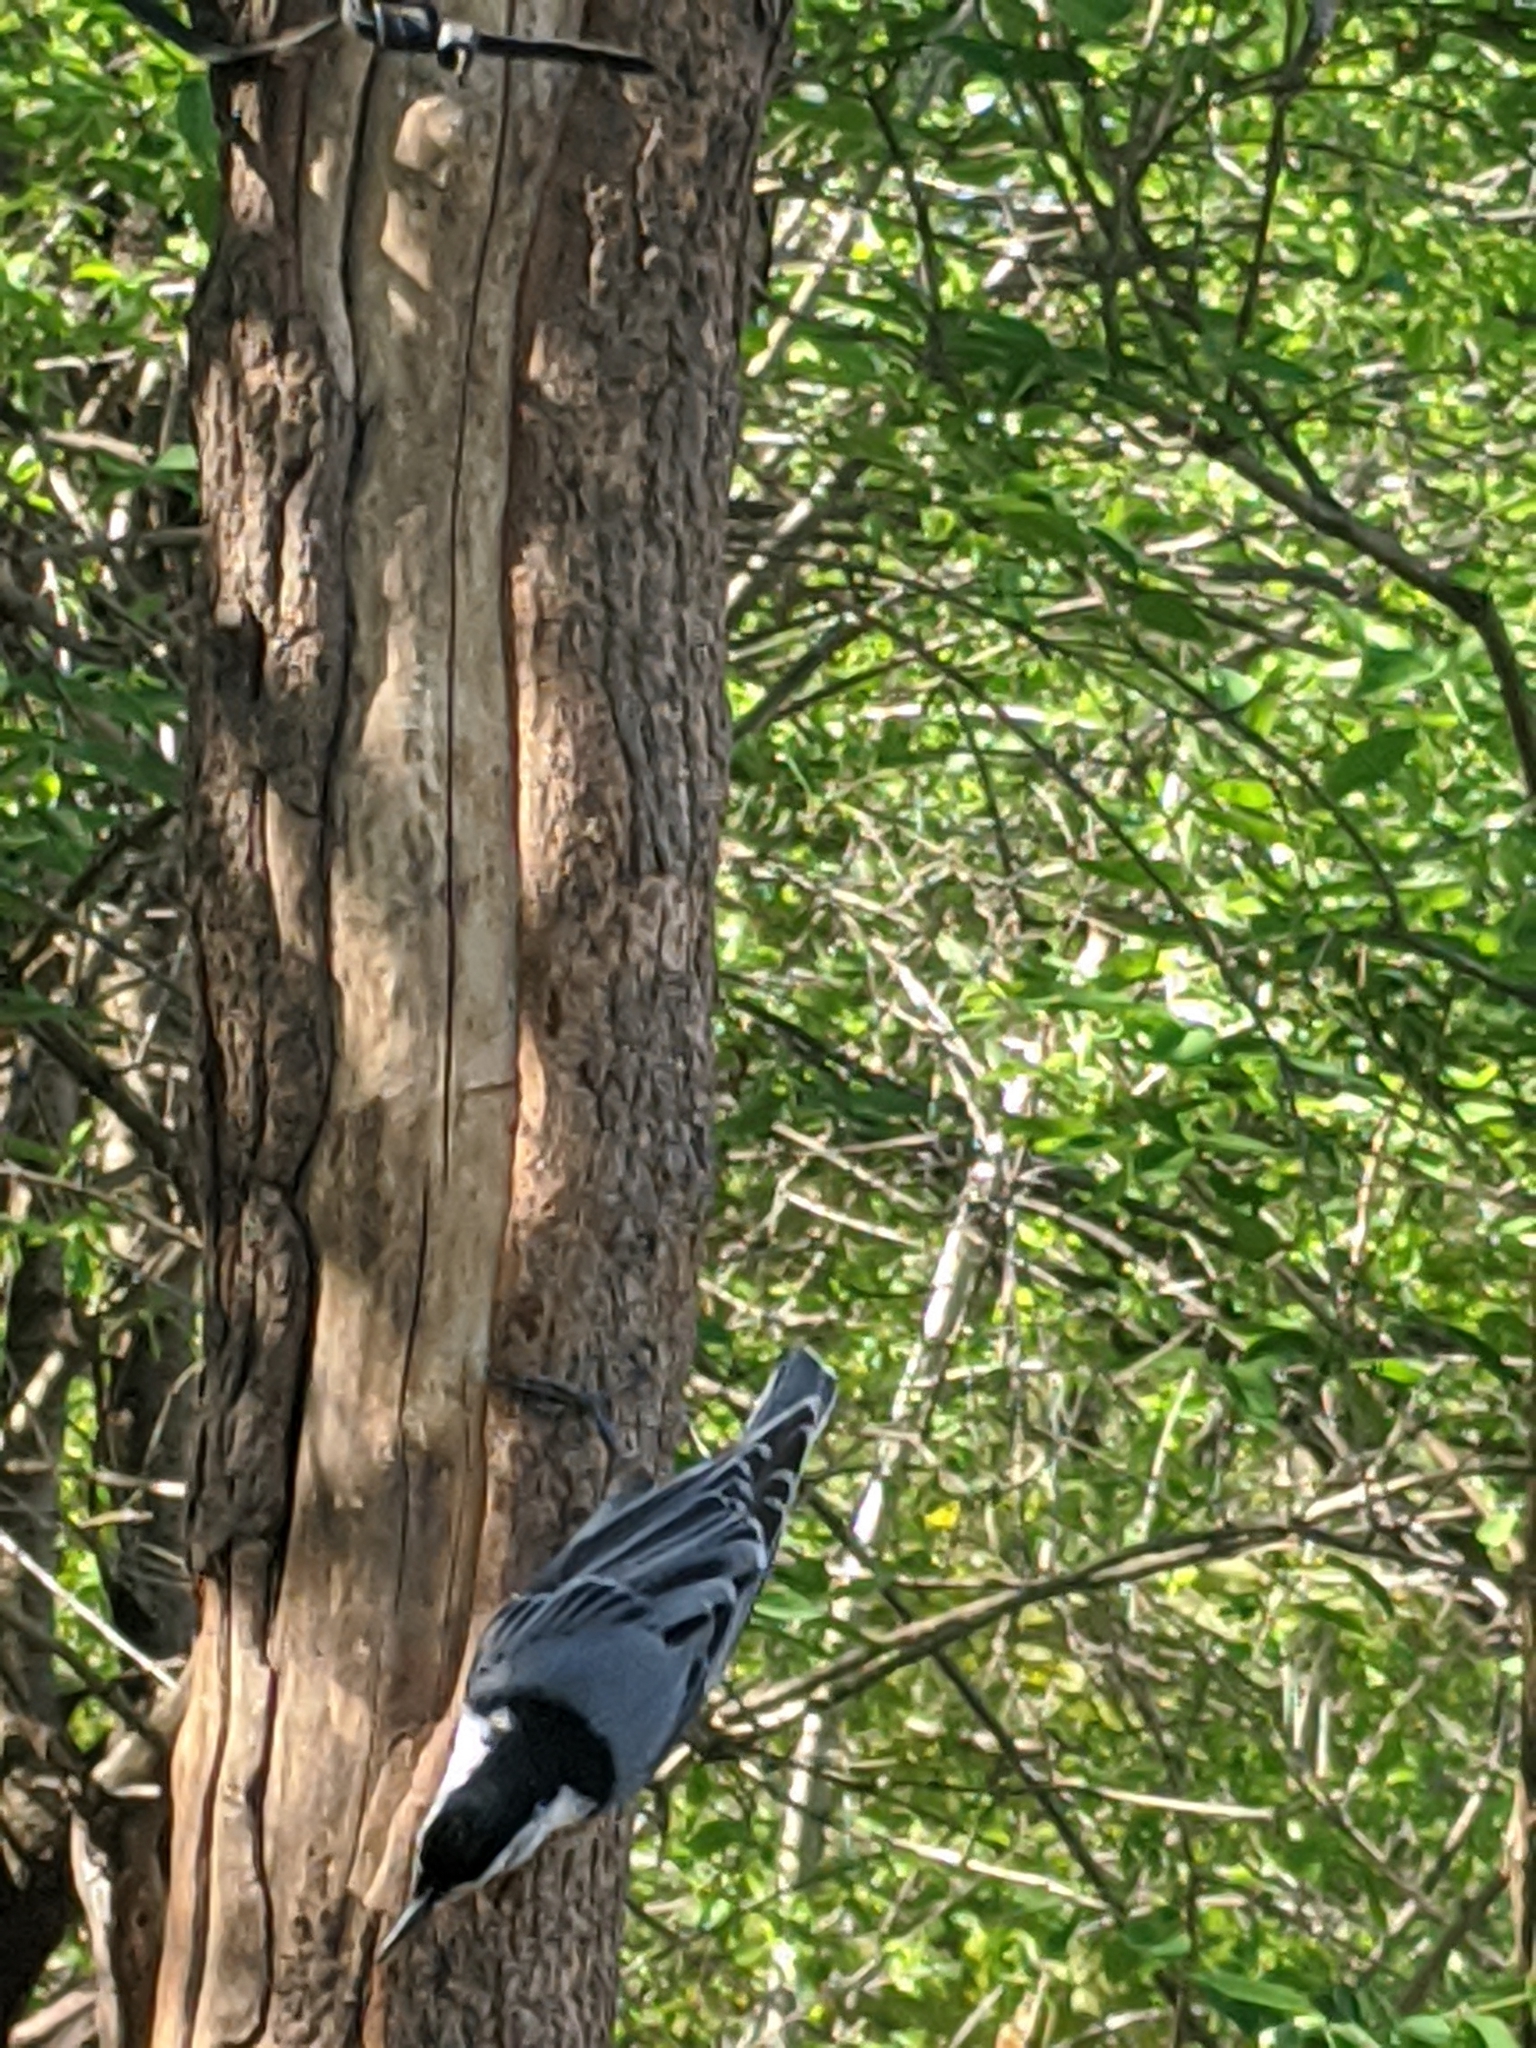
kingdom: Animalia
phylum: Chordata
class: Aves
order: Passeriformes
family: Sittidae
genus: Sitta
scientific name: Sitta carolinensis
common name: White-breasted nuthatch
